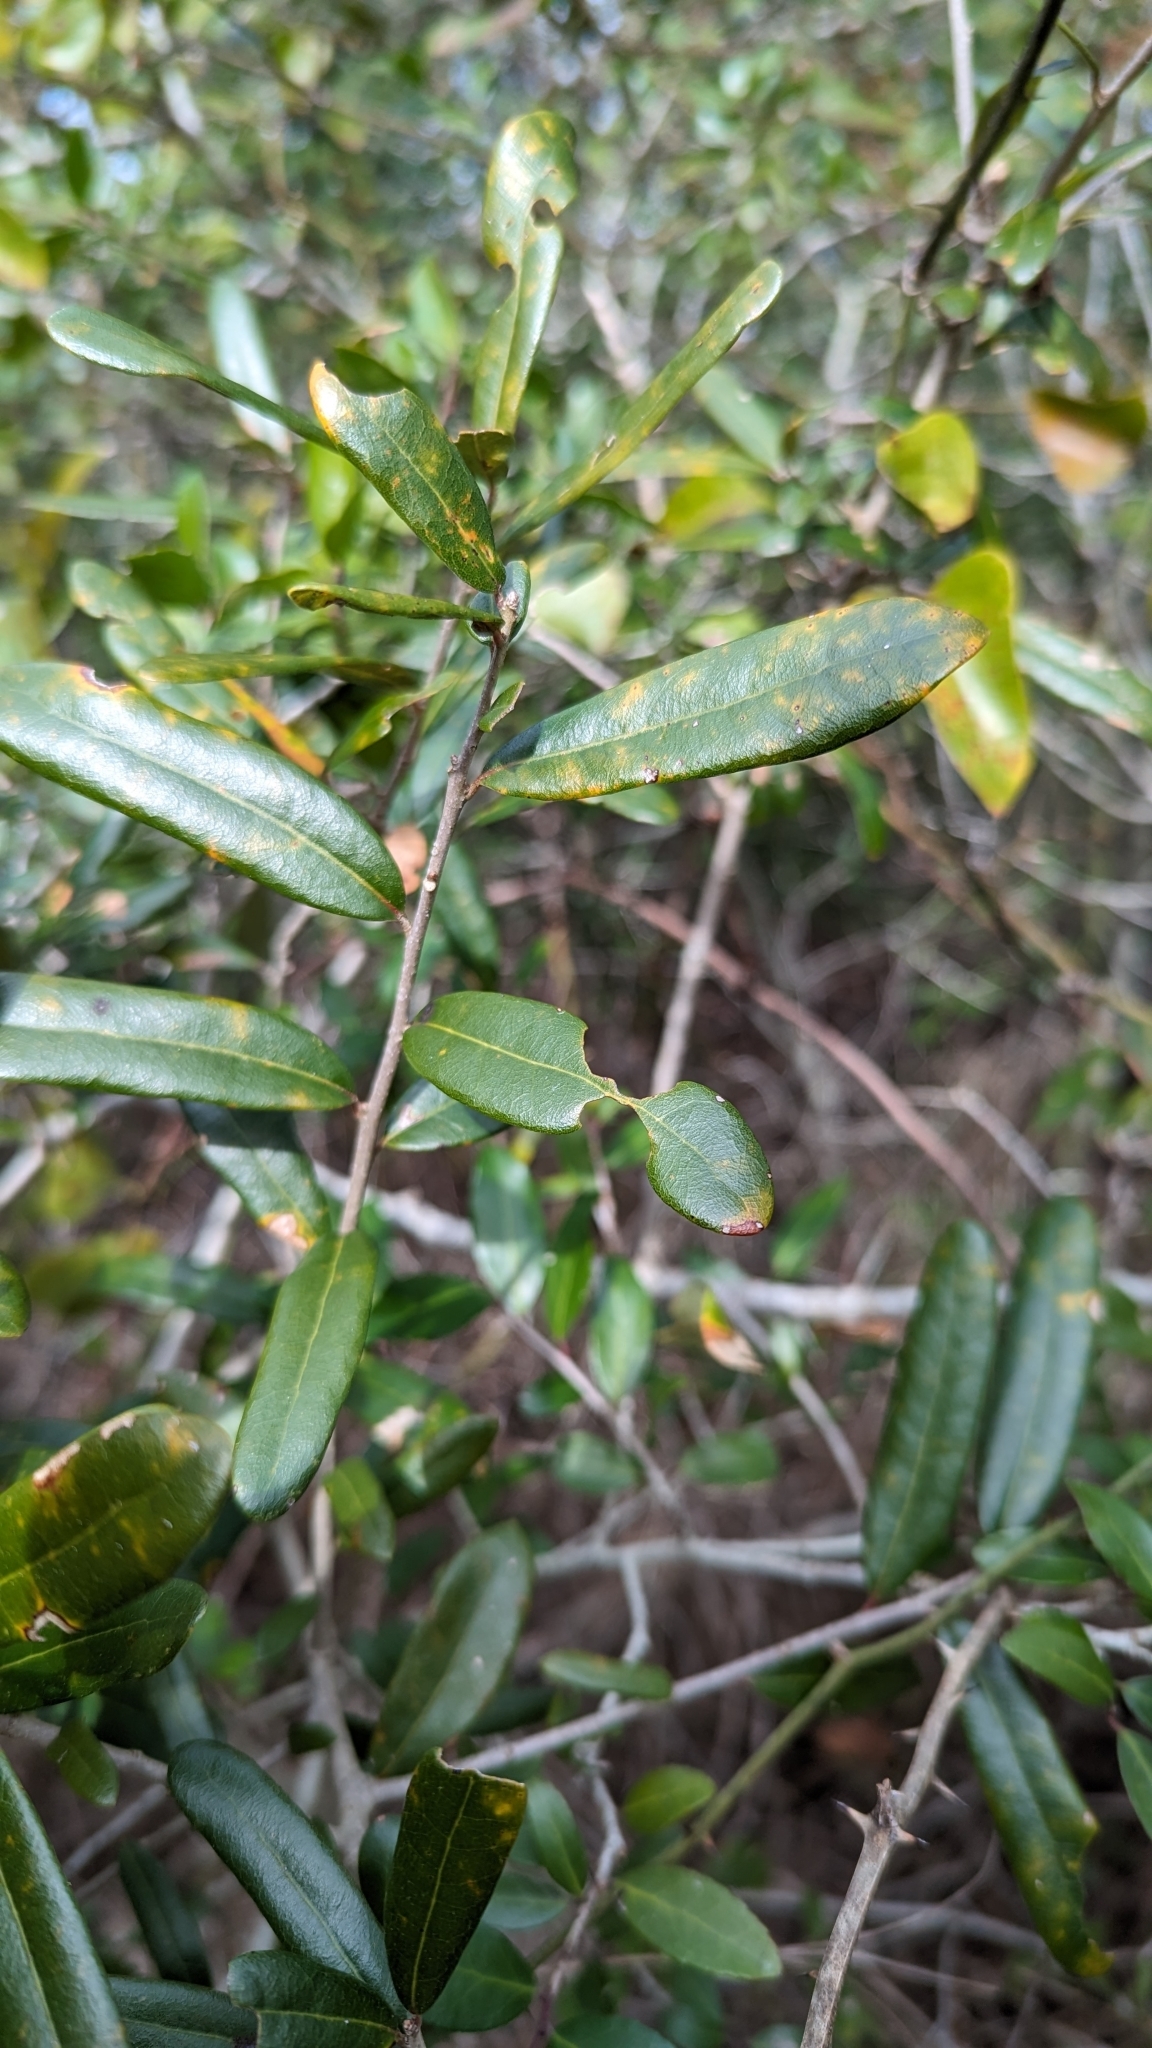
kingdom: Plantae
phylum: Tracheophyta
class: Magnoliopsida
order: Fagales
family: Fagaceae
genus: Quercus
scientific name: Quercus virginiana
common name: Southern live oak
